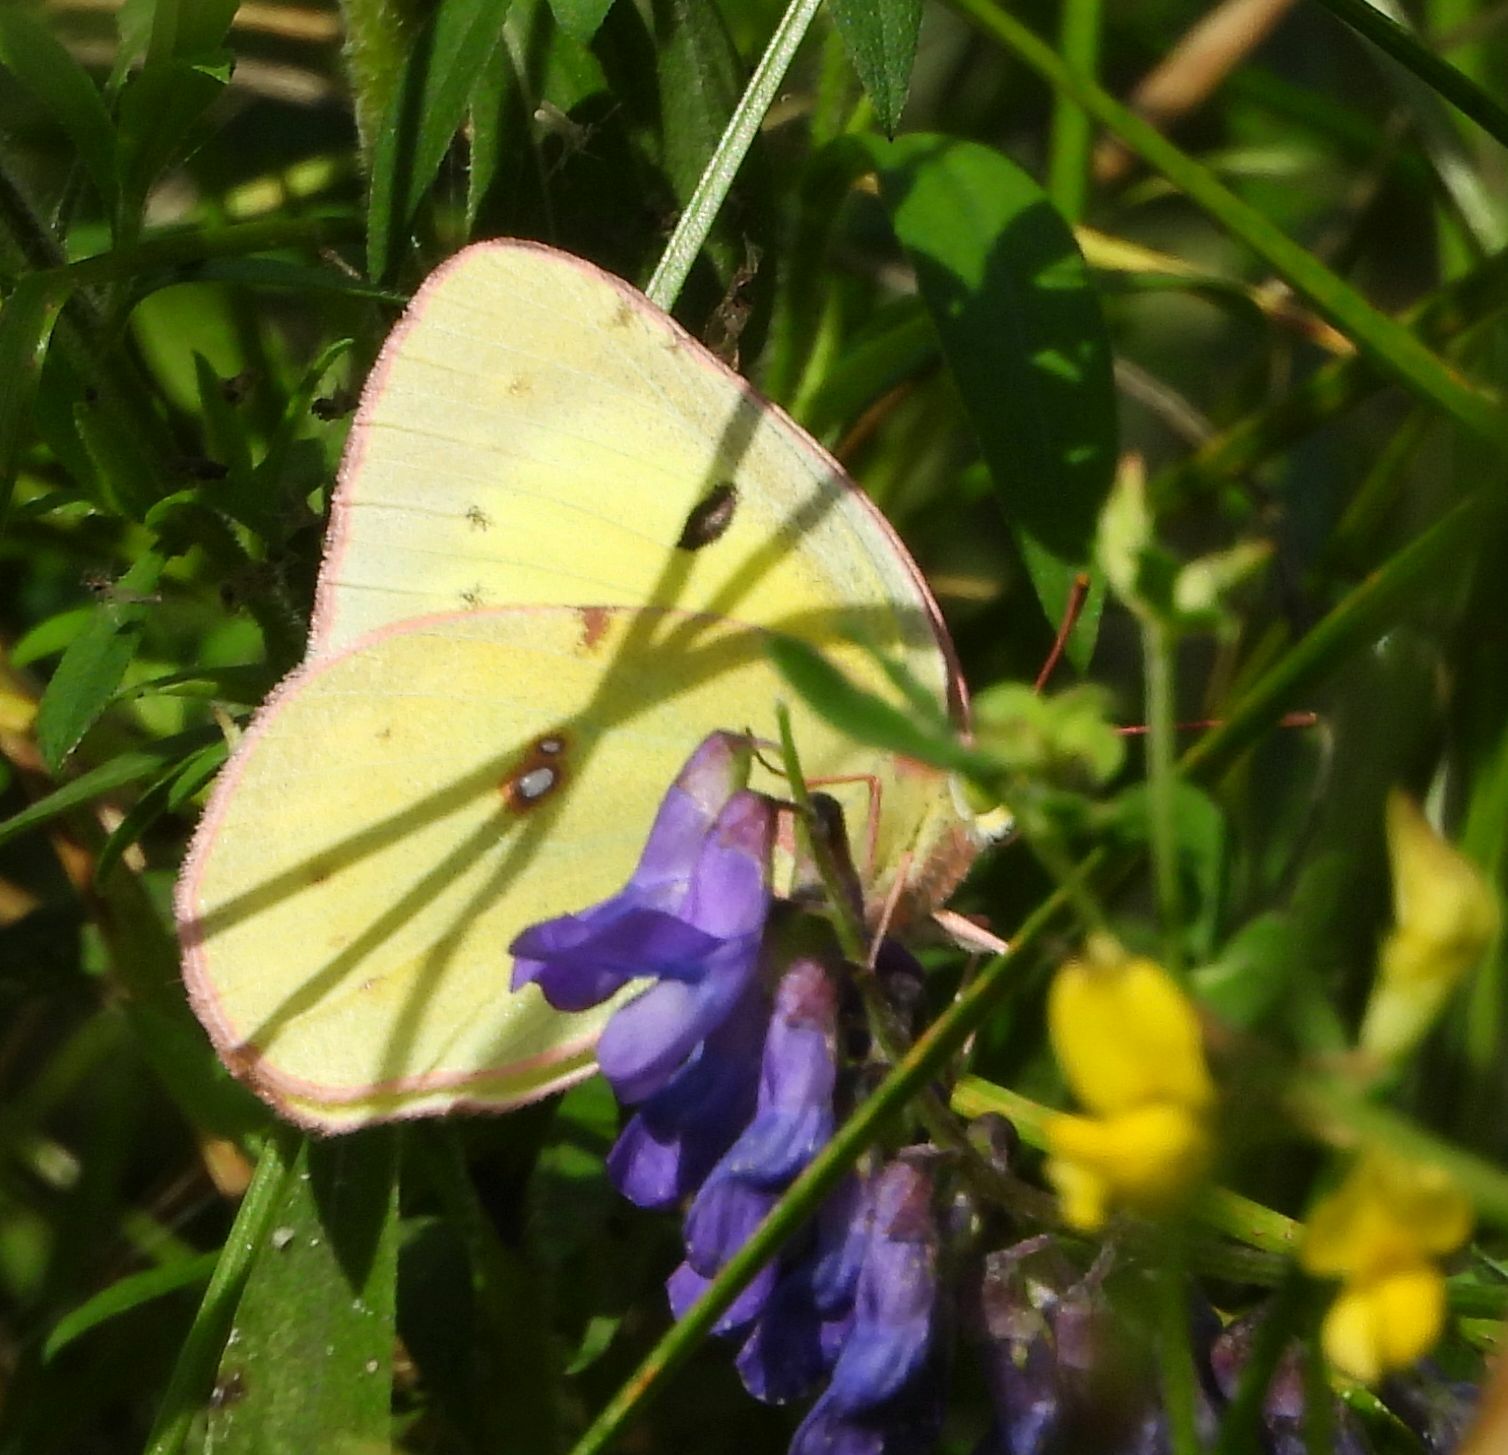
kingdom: Animalia
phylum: Arthropoda
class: Insecta
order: Lepidoptera
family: Pieridae
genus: Colias
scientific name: Colias philodice
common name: Clouded sulphur
